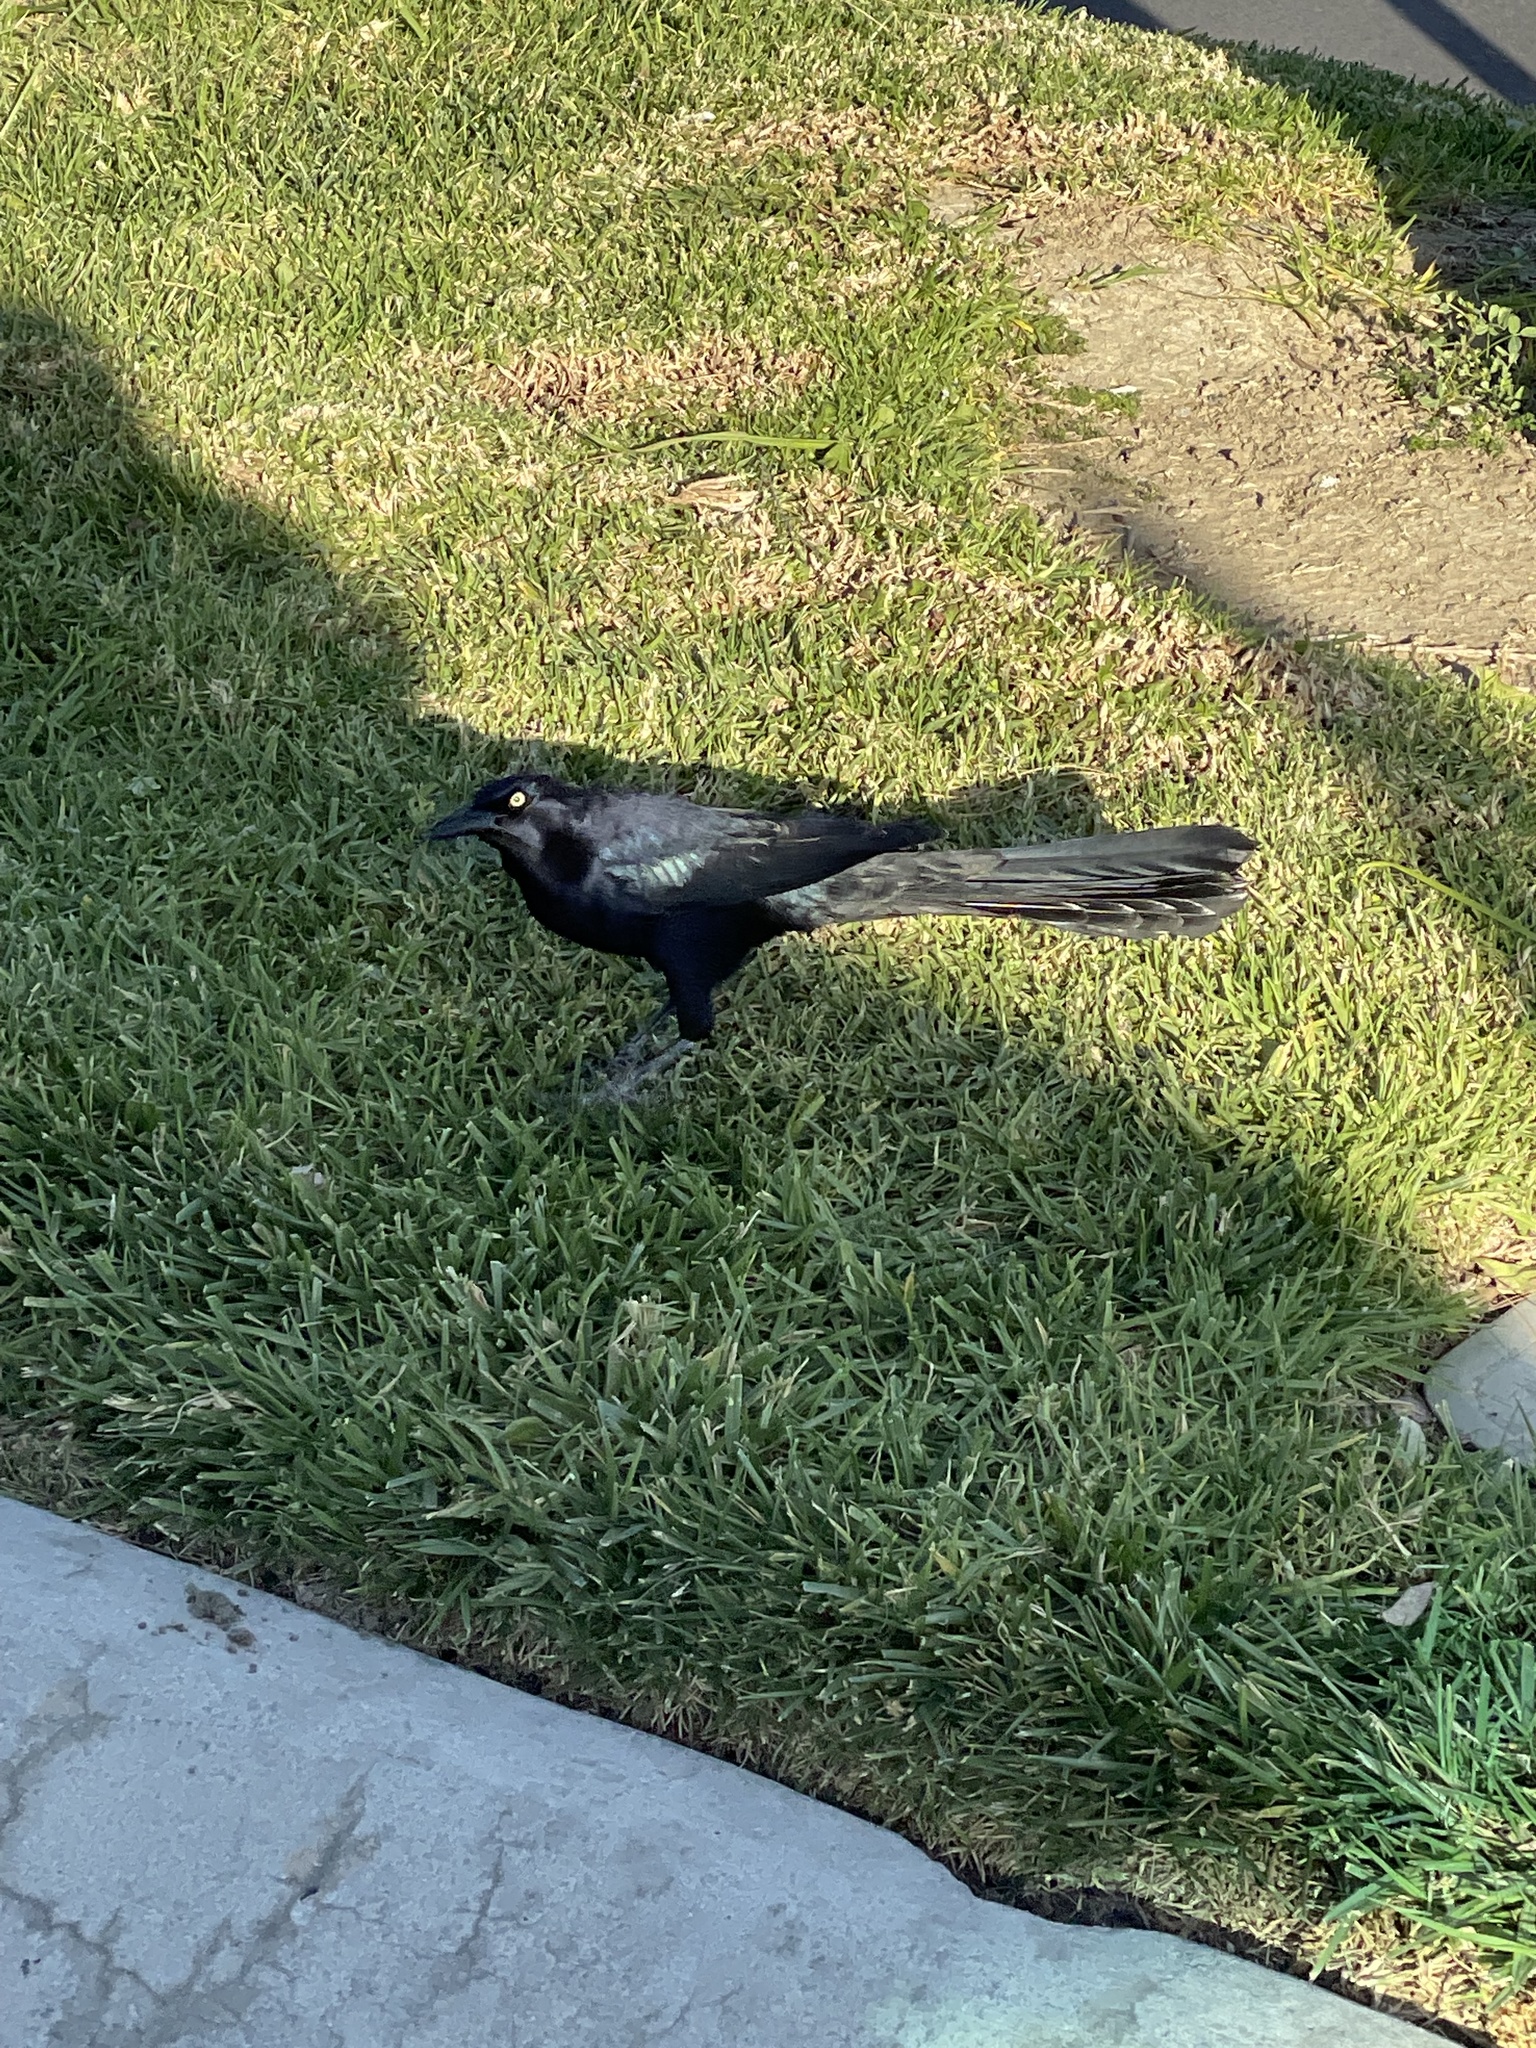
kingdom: Animalia
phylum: Chordata
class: Aves
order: Passeriformes
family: Icteridae
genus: Quiscalus
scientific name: Quiscalus mexicanus
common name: Great-tailed grackle
